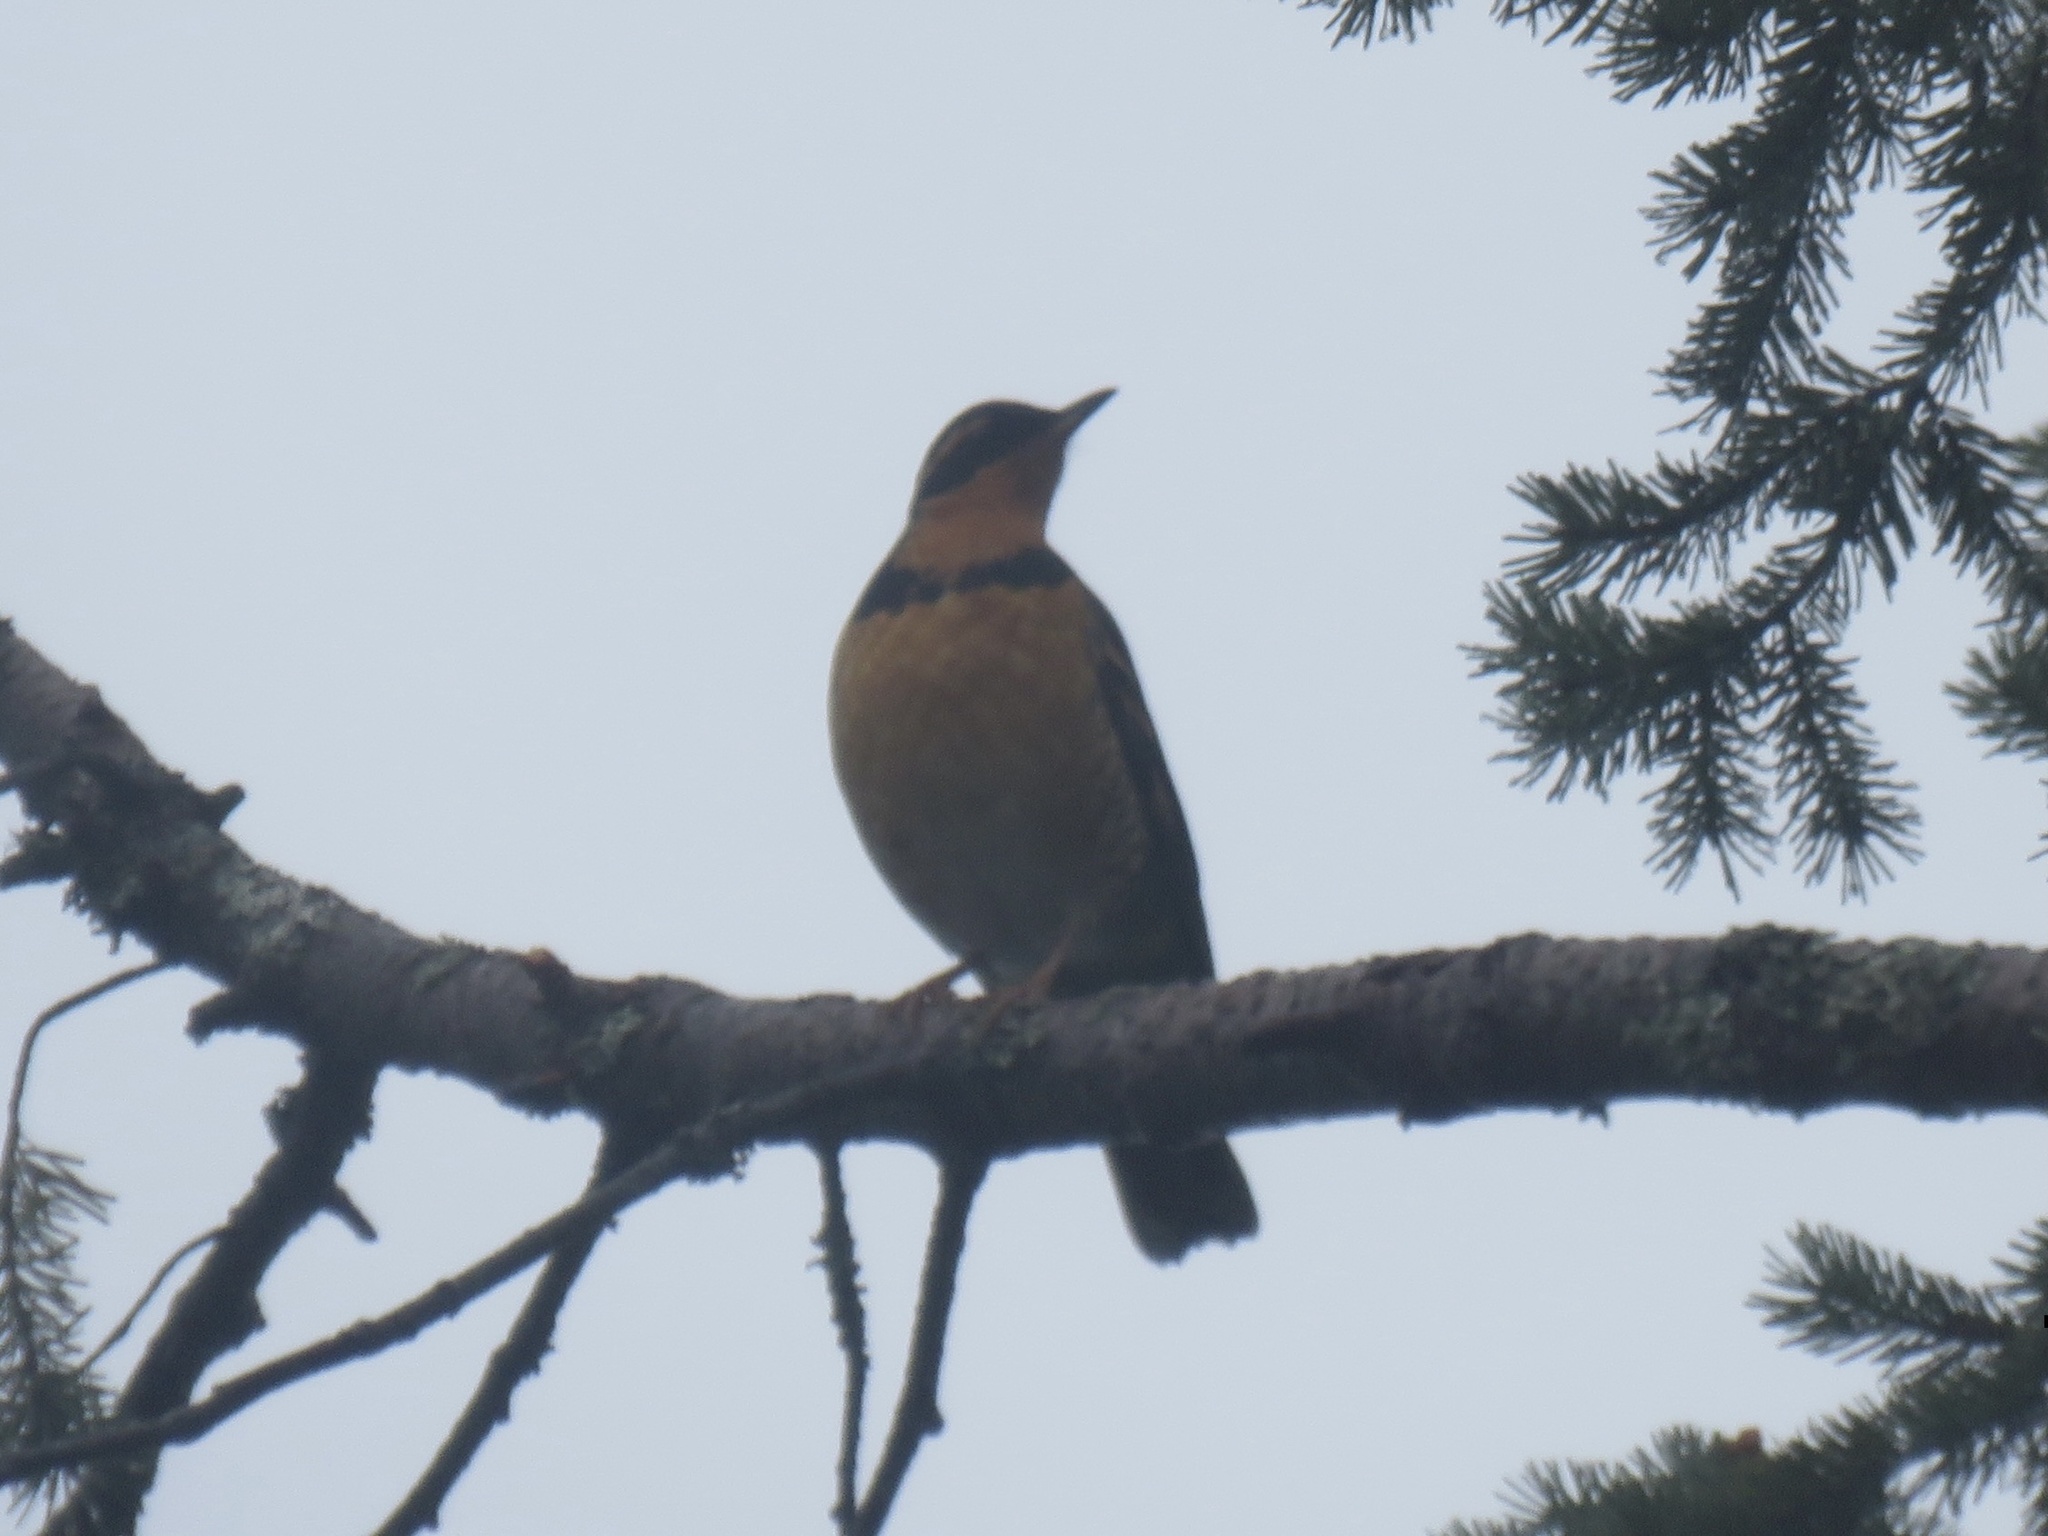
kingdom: Animalia
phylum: Chordata
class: Aves
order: Passeriformes
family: Turdidae
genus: Ixoreus
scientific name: Ixoreus naevius
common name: Varied thrush
